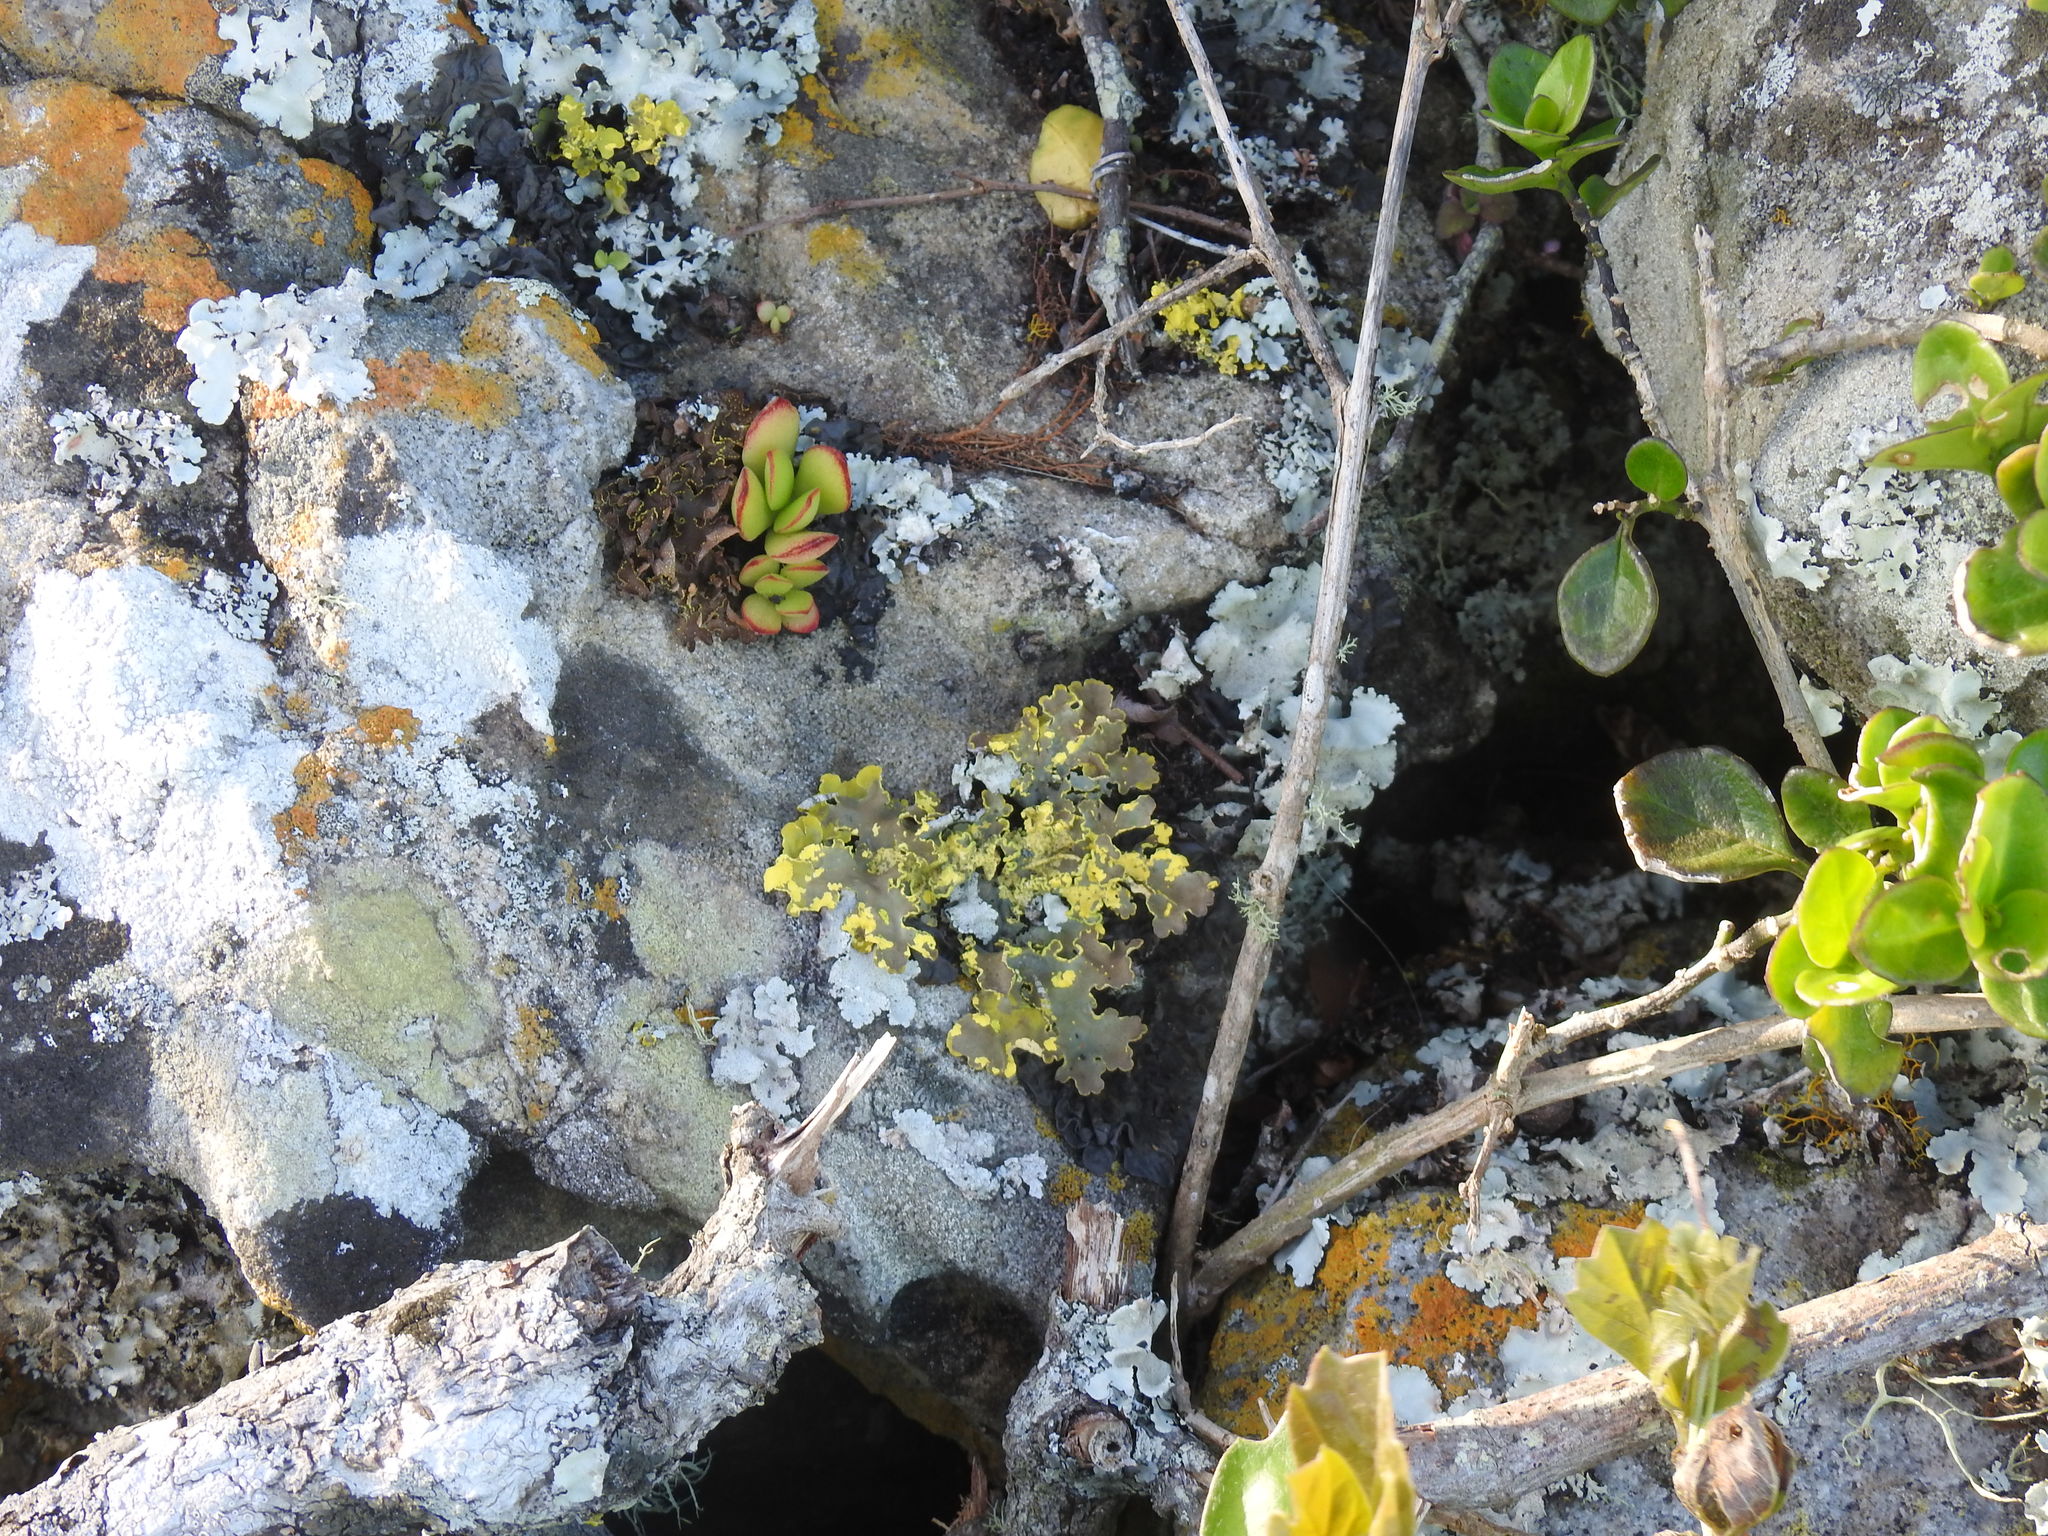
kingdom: Fungi
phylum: Ascomycota
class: Lecanoromycetes
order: Peltigerales
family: Lobariaceae
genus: Pseudocyphellaria
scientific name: Pseudocyphellaria aurata
